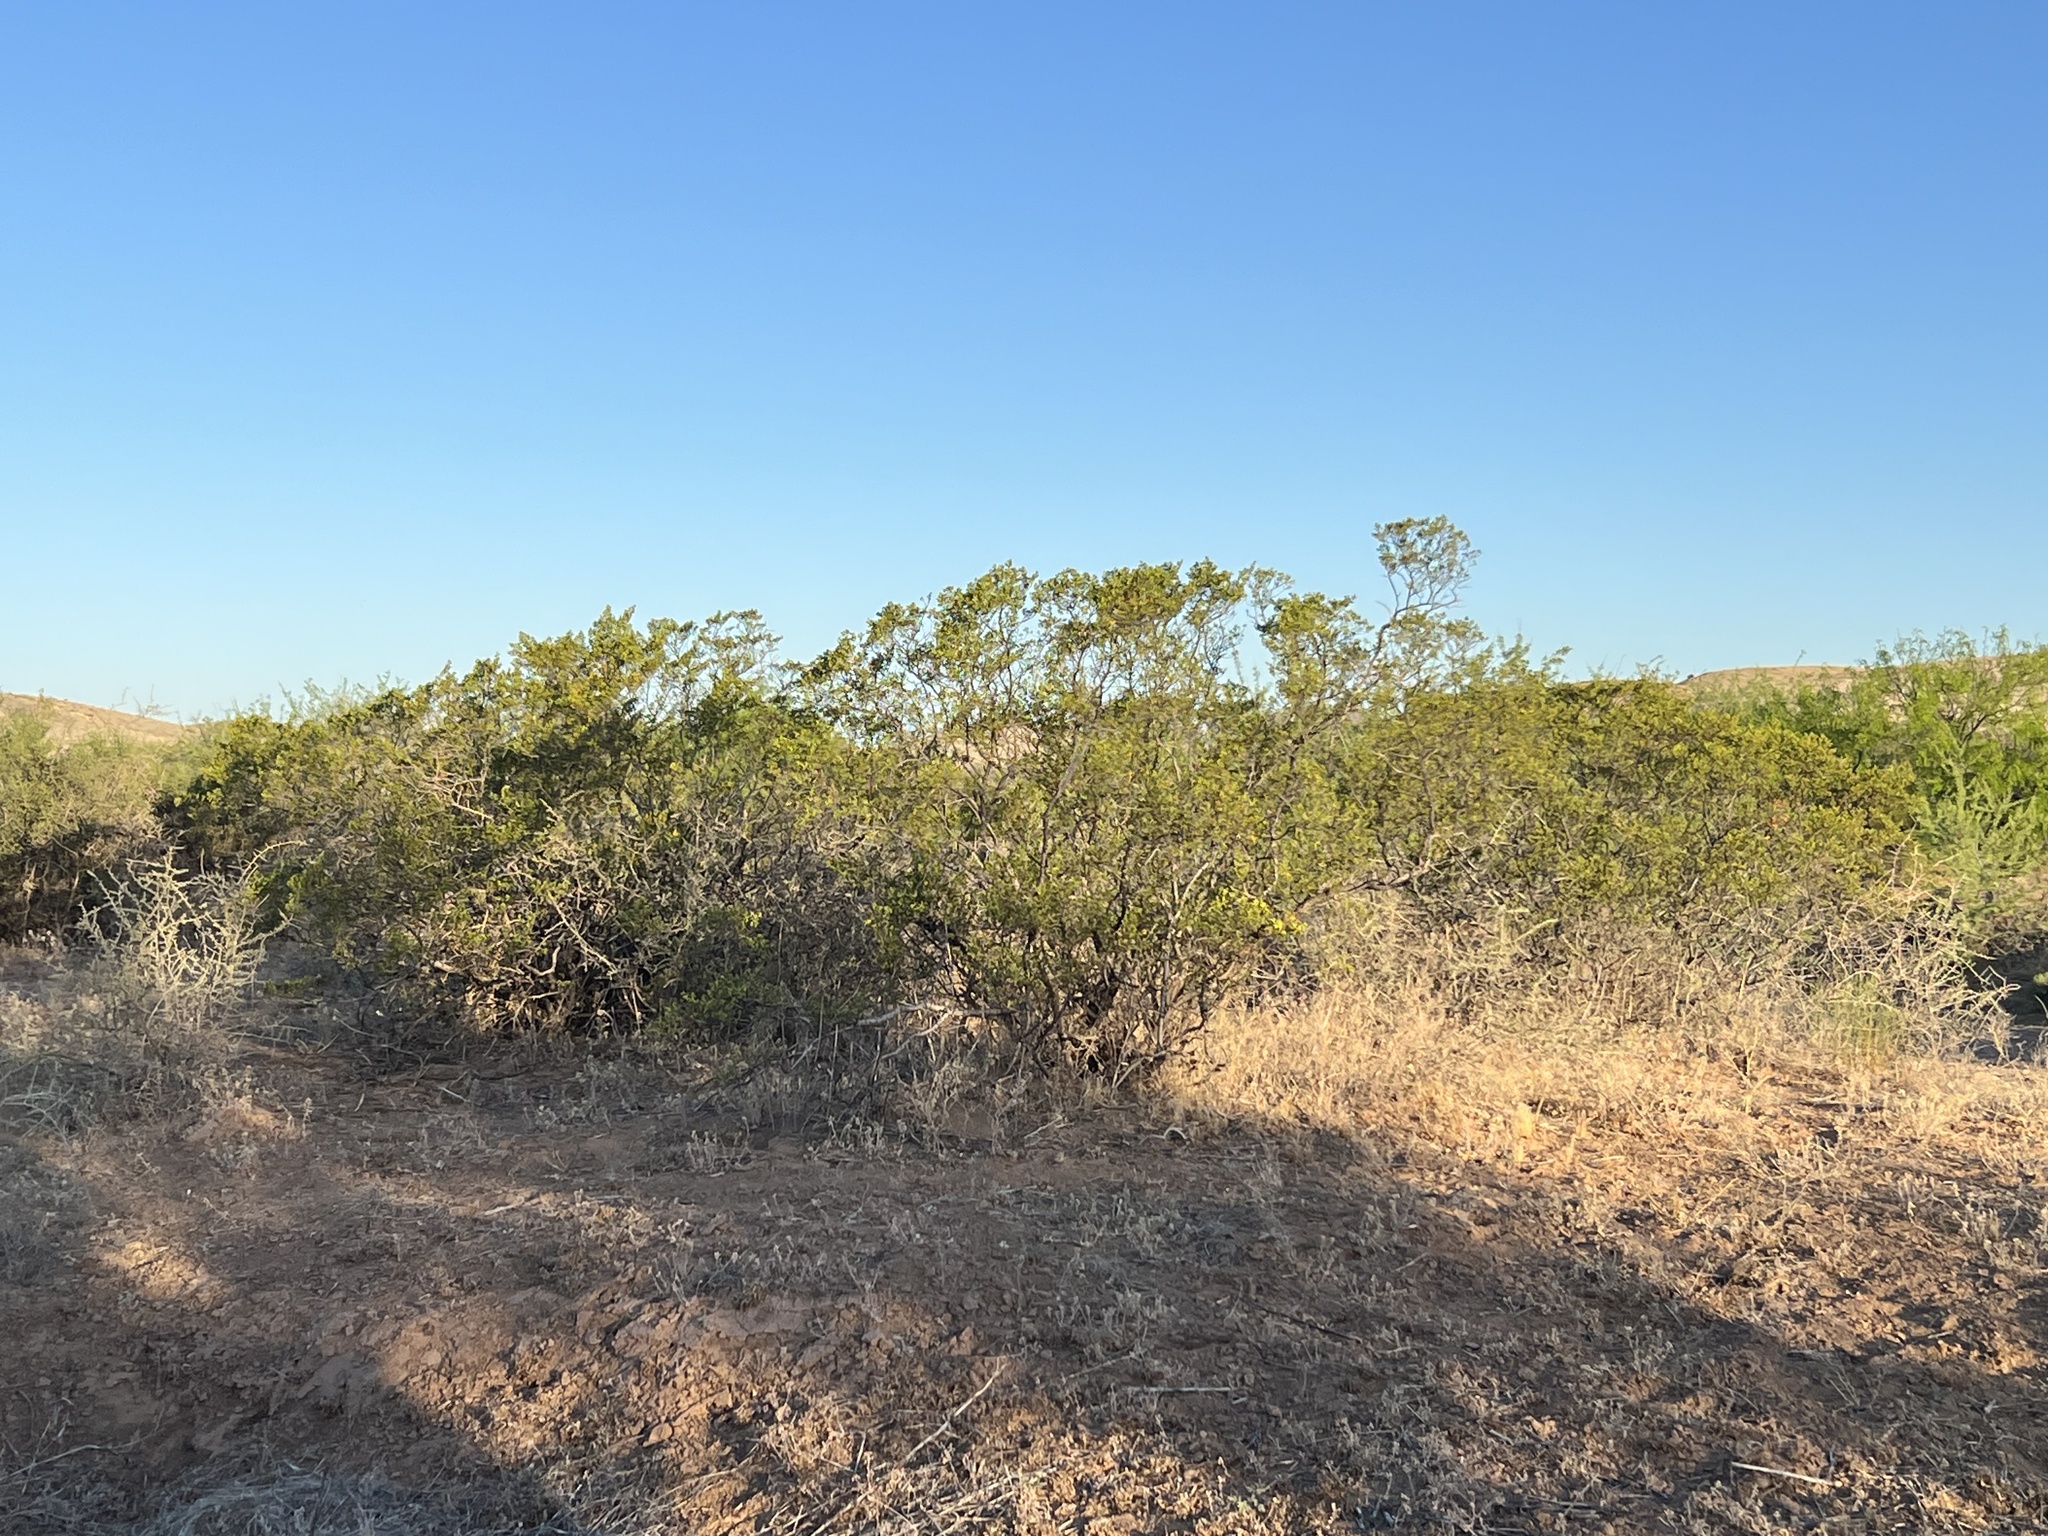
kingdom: Plantae
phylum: Tracheophyta
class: Magnoliopsida
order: Zygophyllales
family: Zygophyllaceae
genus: Larrea
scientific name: Larrea tridentata
